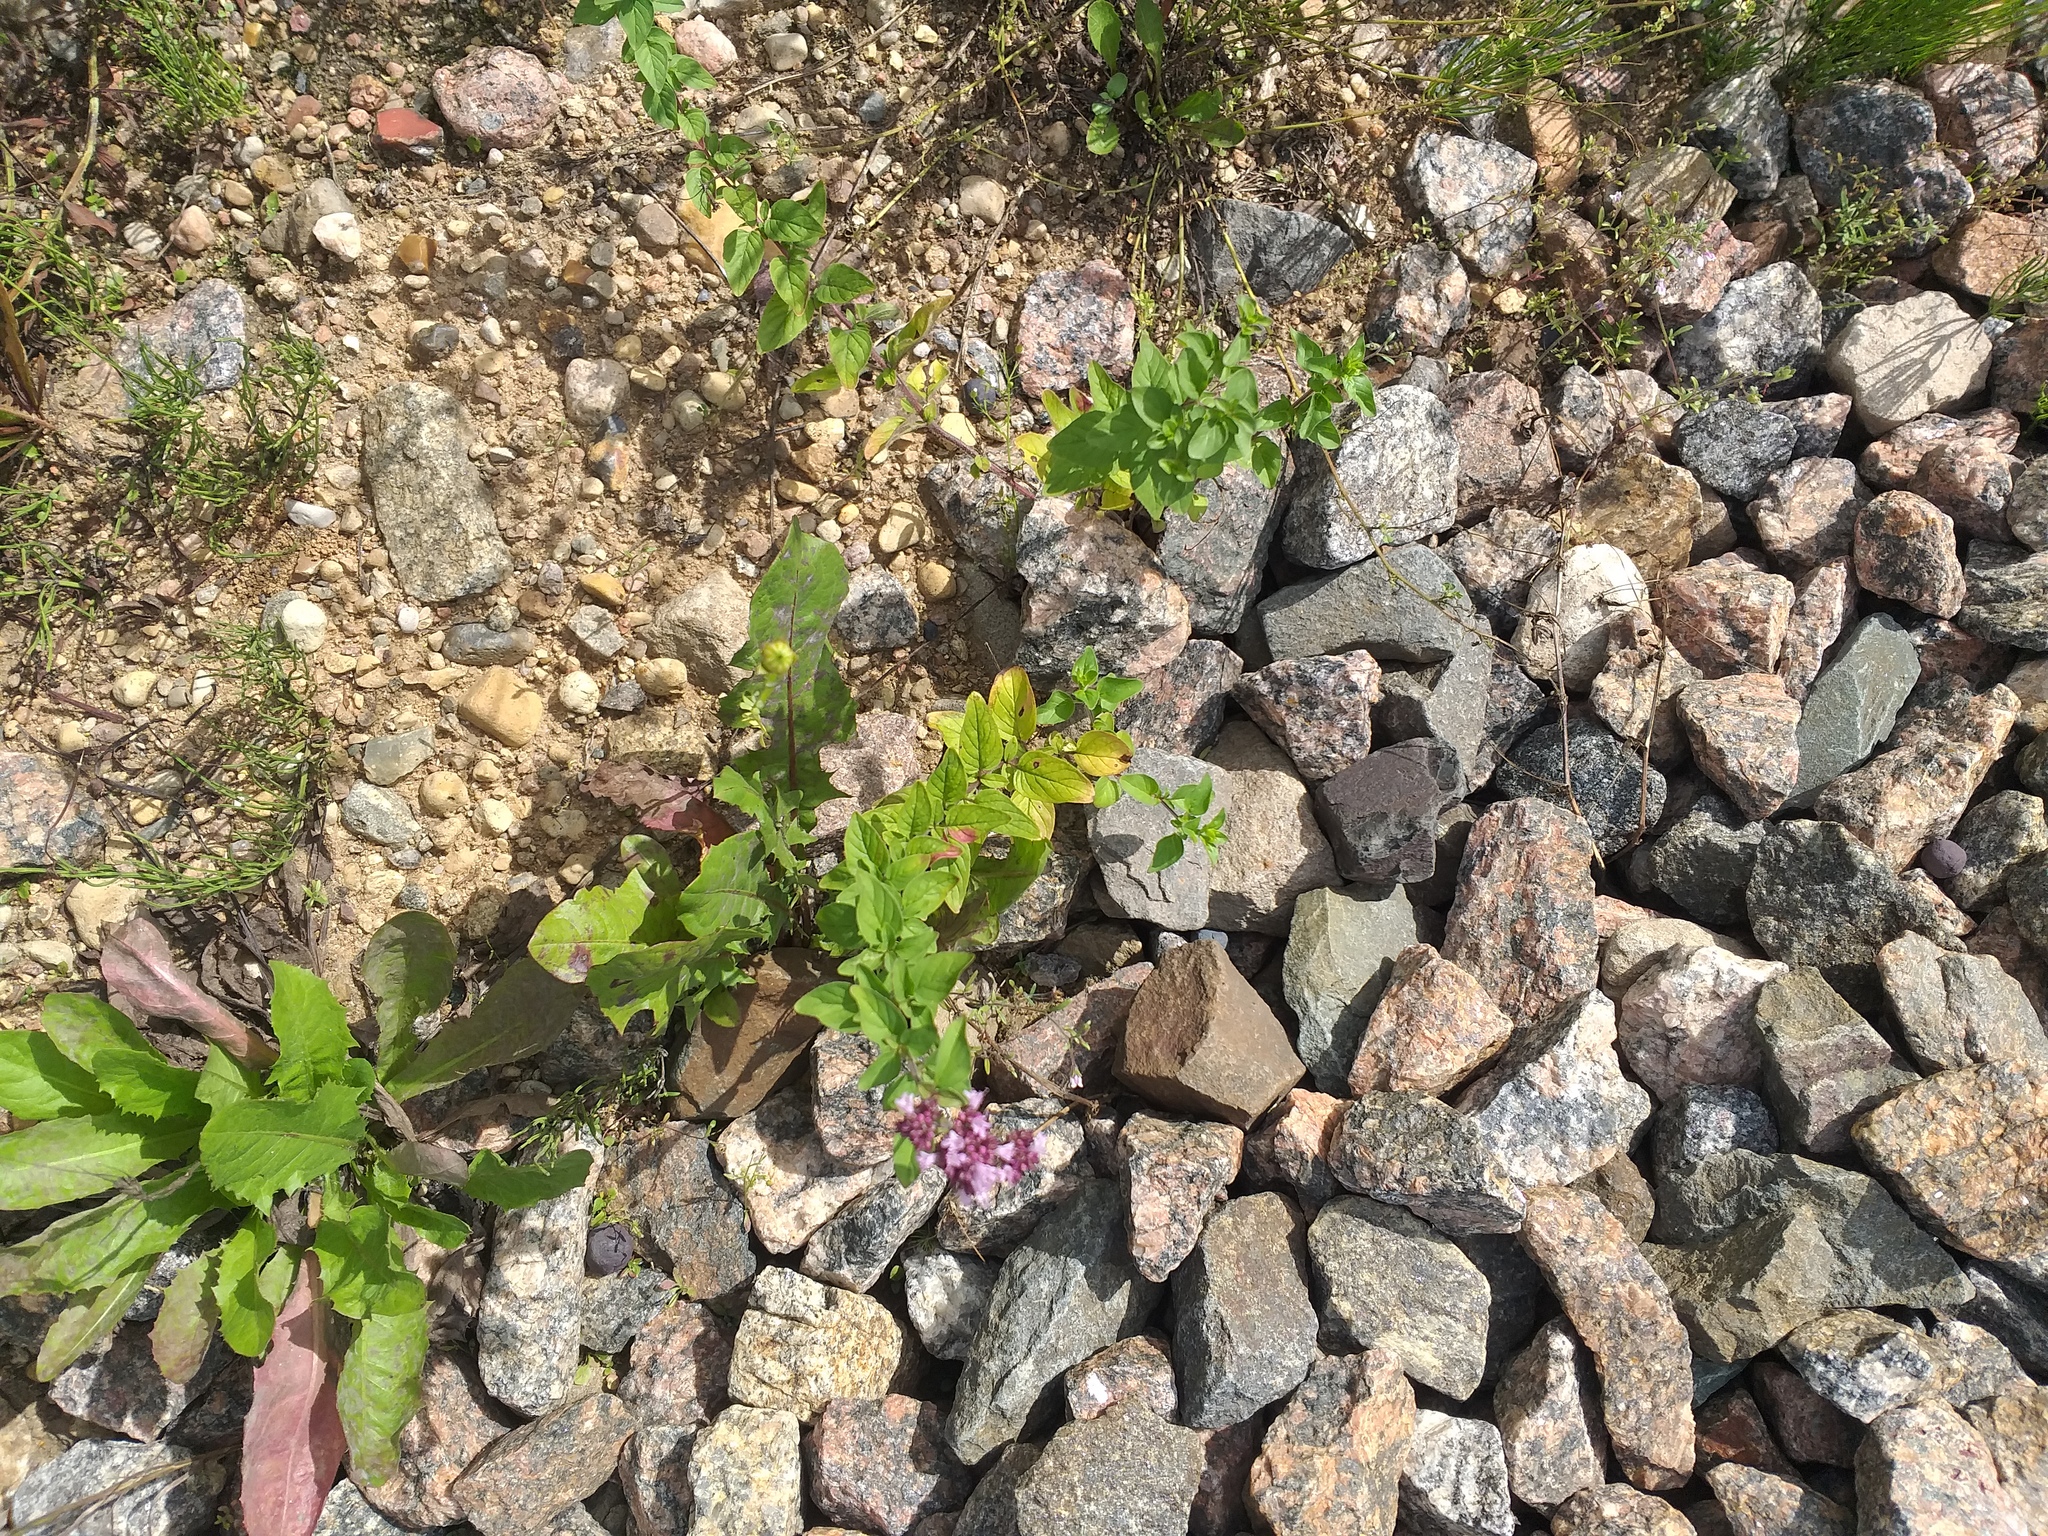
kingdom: Plantae
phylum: Tracheophyta
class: Magnoliopsida
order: Lamiales
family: Lamiaceae
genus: Origanum
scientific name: Origanum vulgare
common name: Wild marjoram
